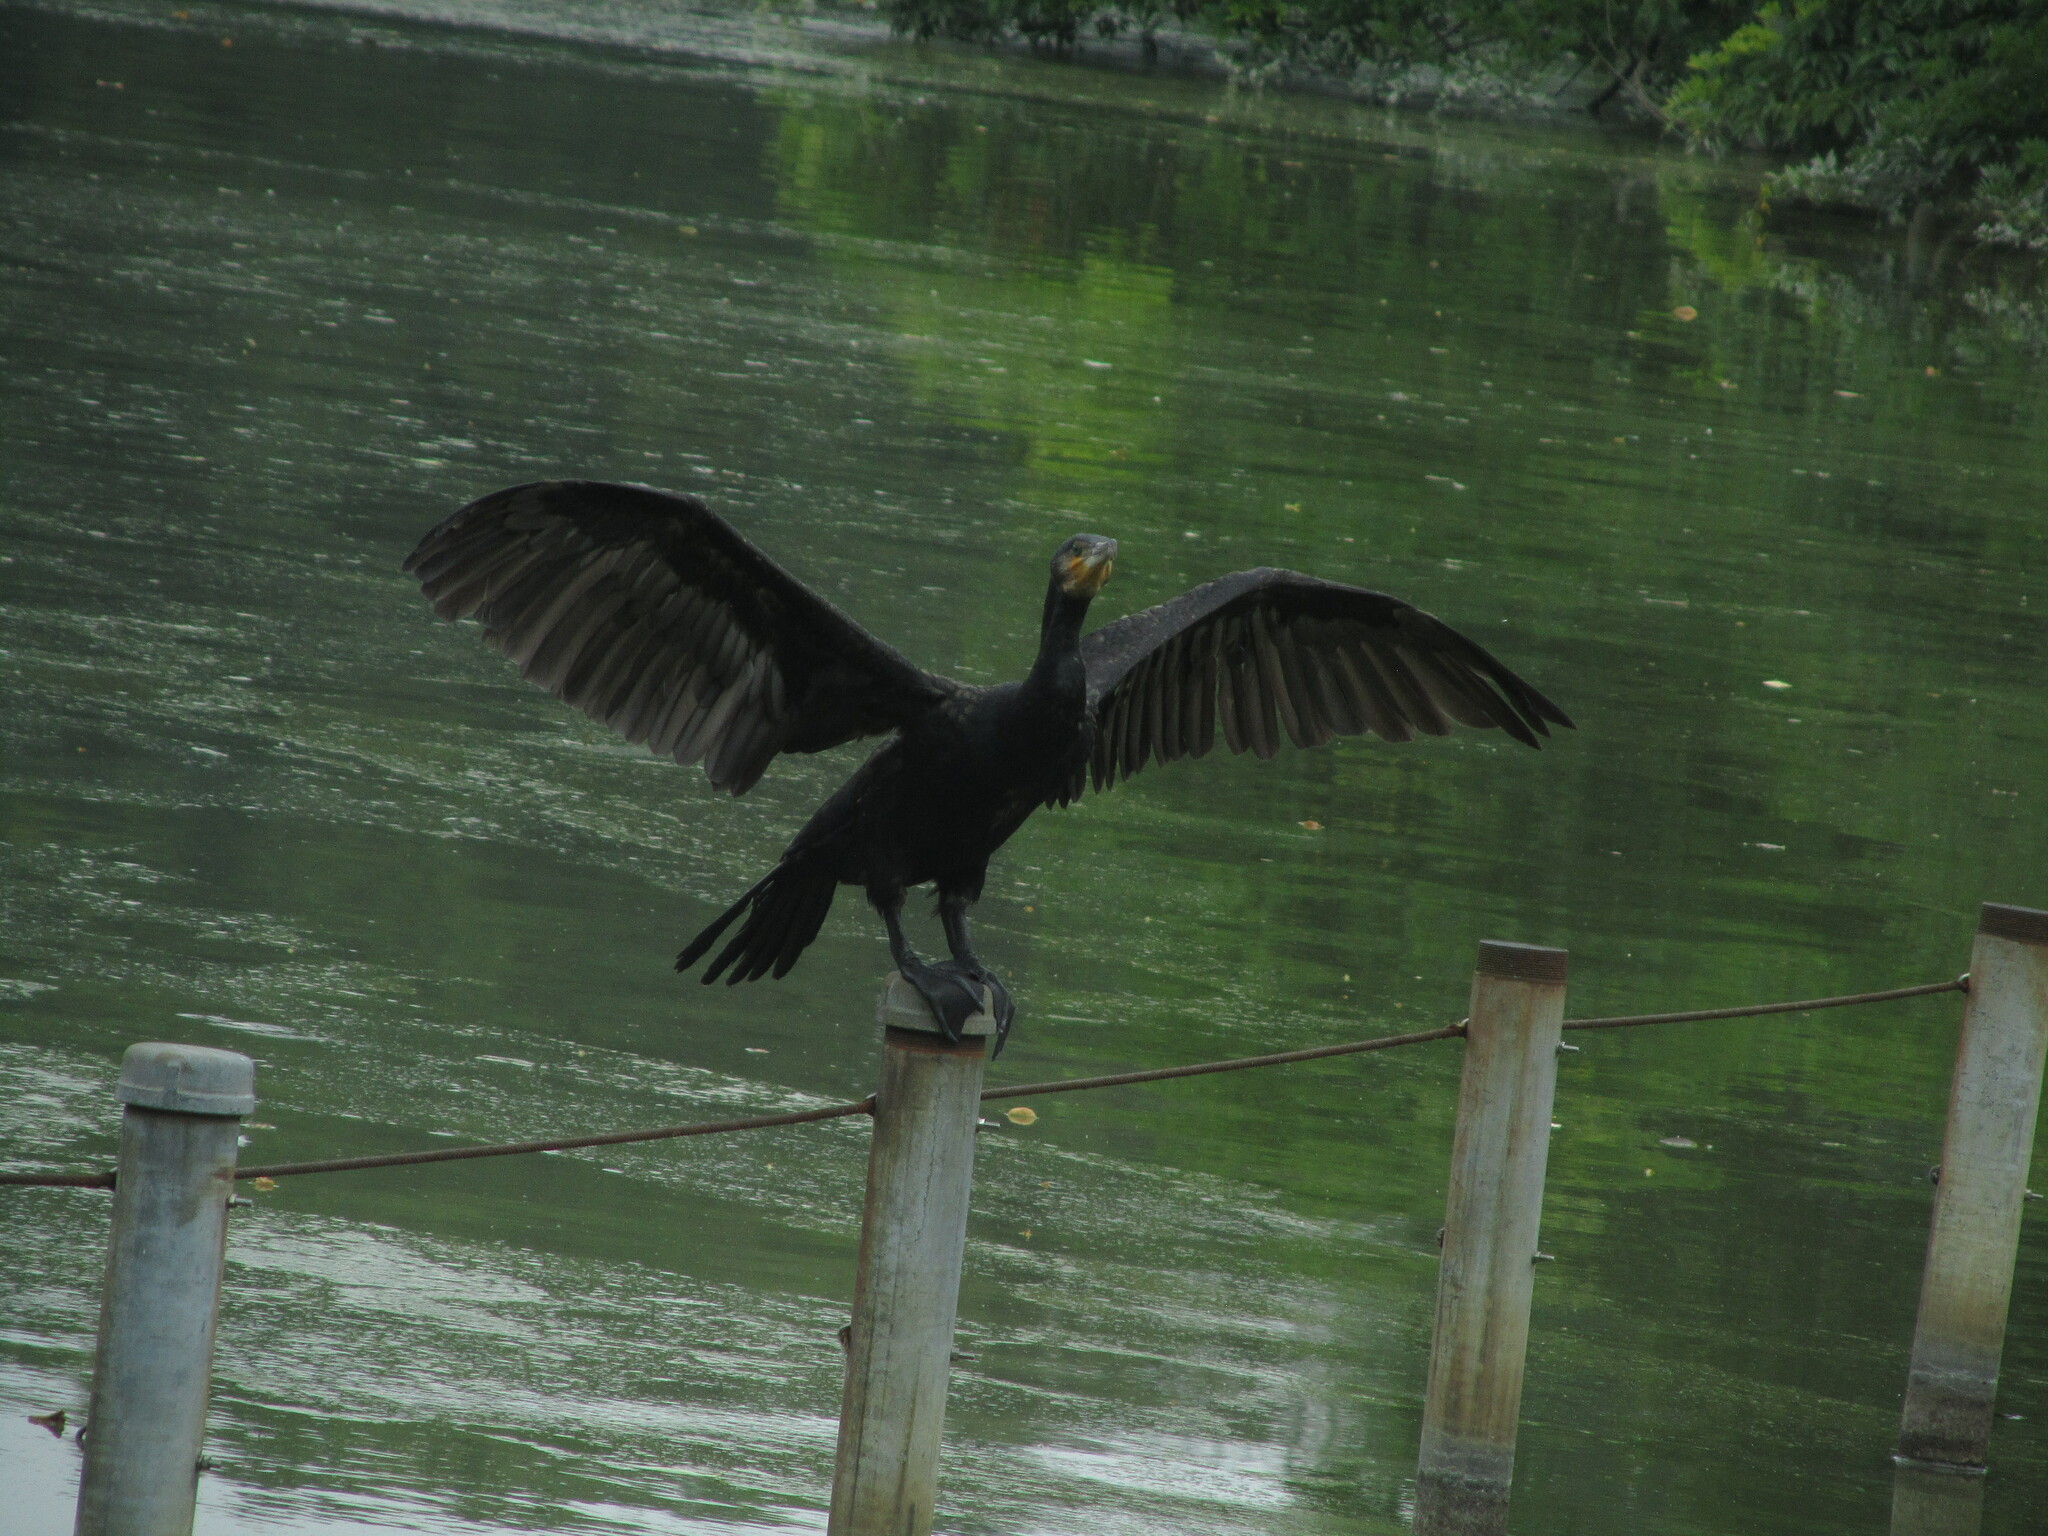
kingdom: Animalia
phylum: Chordata
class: Aves
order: Suliformes
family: Phalacrocoracidae
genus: Phalacrocorax
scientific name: Phalacrocorax carbo
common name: Great cormorant
